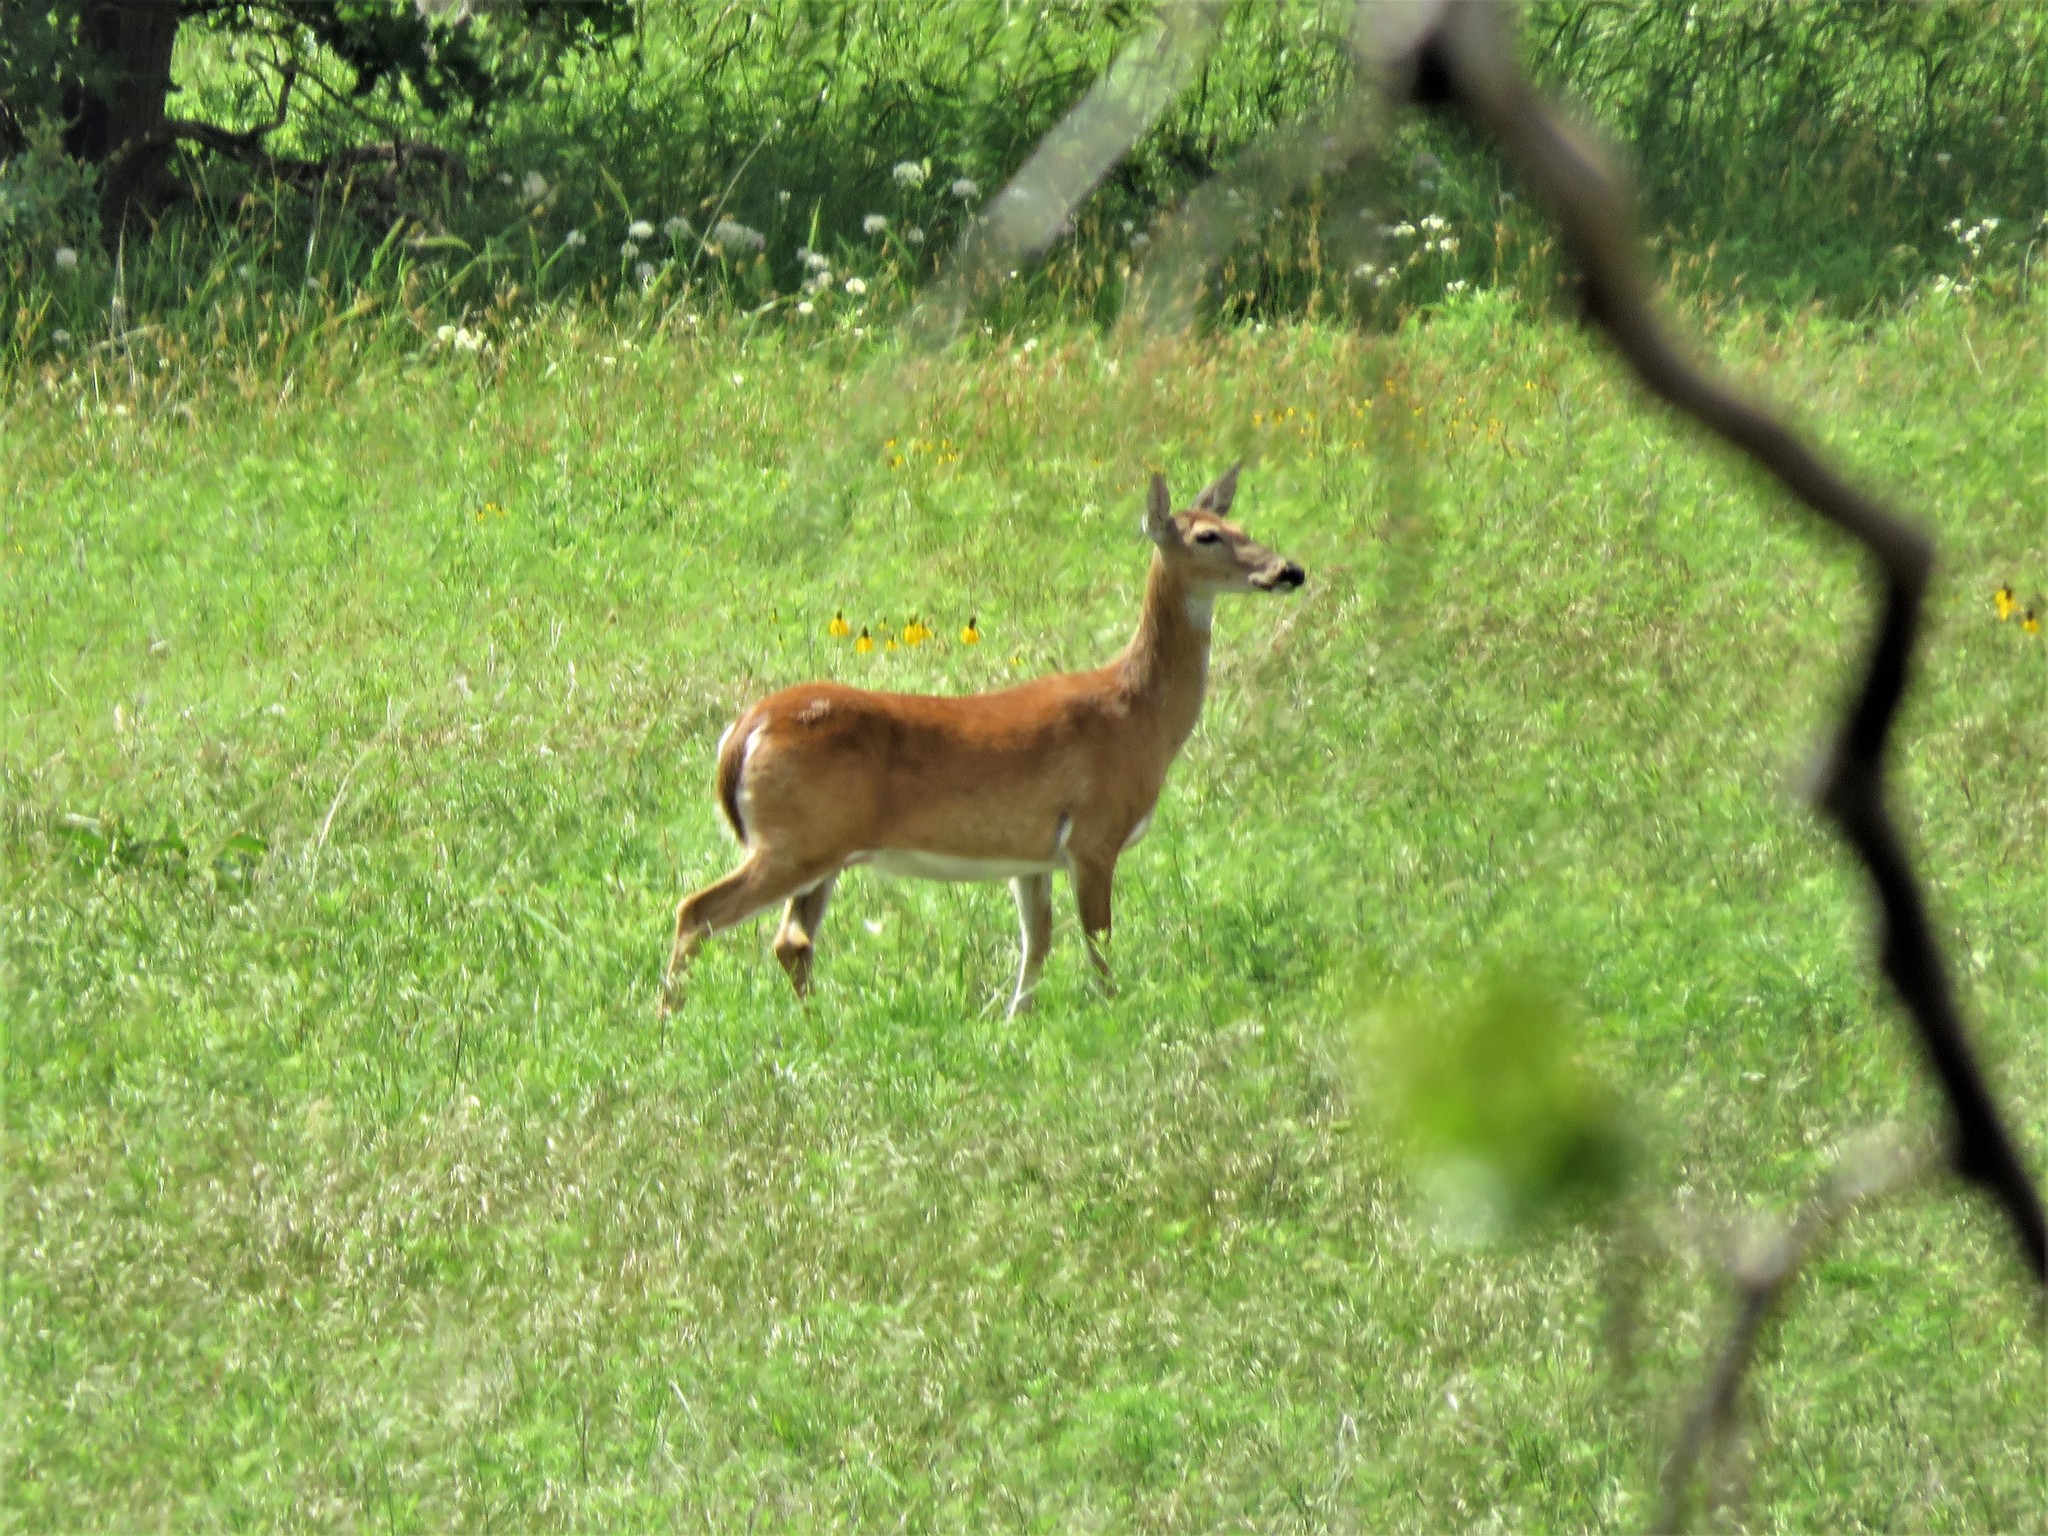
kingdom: Animalia
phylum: Chordata
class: Mammalia
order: Artiodactyla
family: Cervidae
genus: Odocoileus
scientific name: Odocoileus virginianus
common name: White-tailed deer
